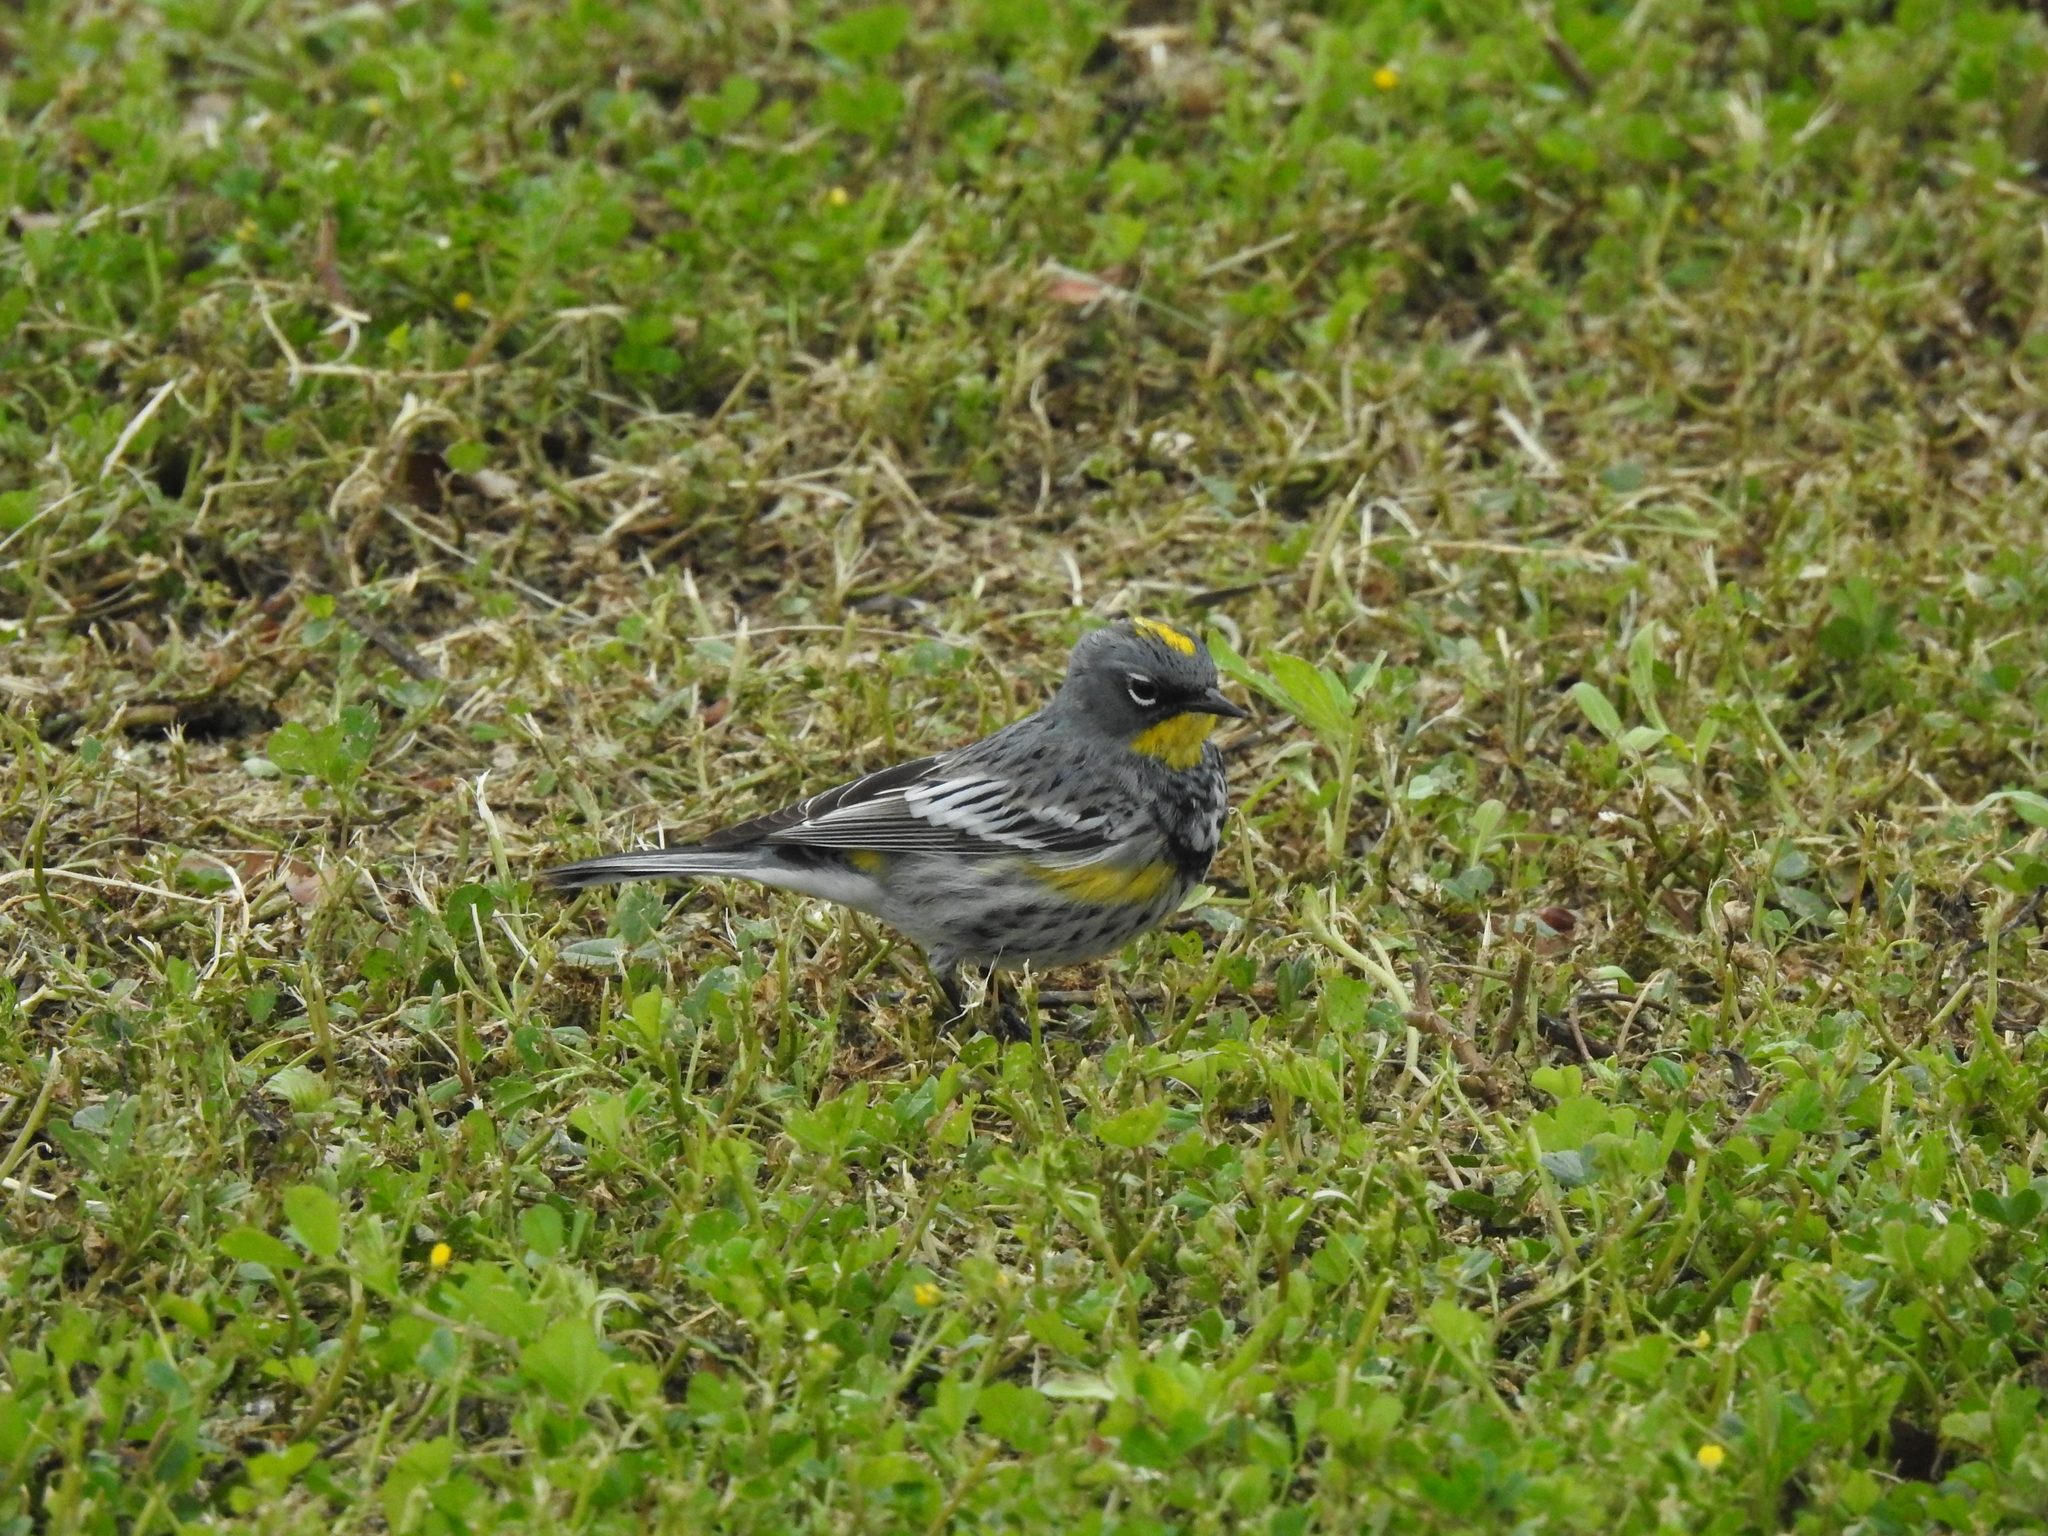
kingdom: Animalia
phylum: Chordata
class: Aves
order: Passeriformes
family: Parulidae
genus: Setophaga
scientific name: Setophaga auduboni
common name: Audubon's warbler
